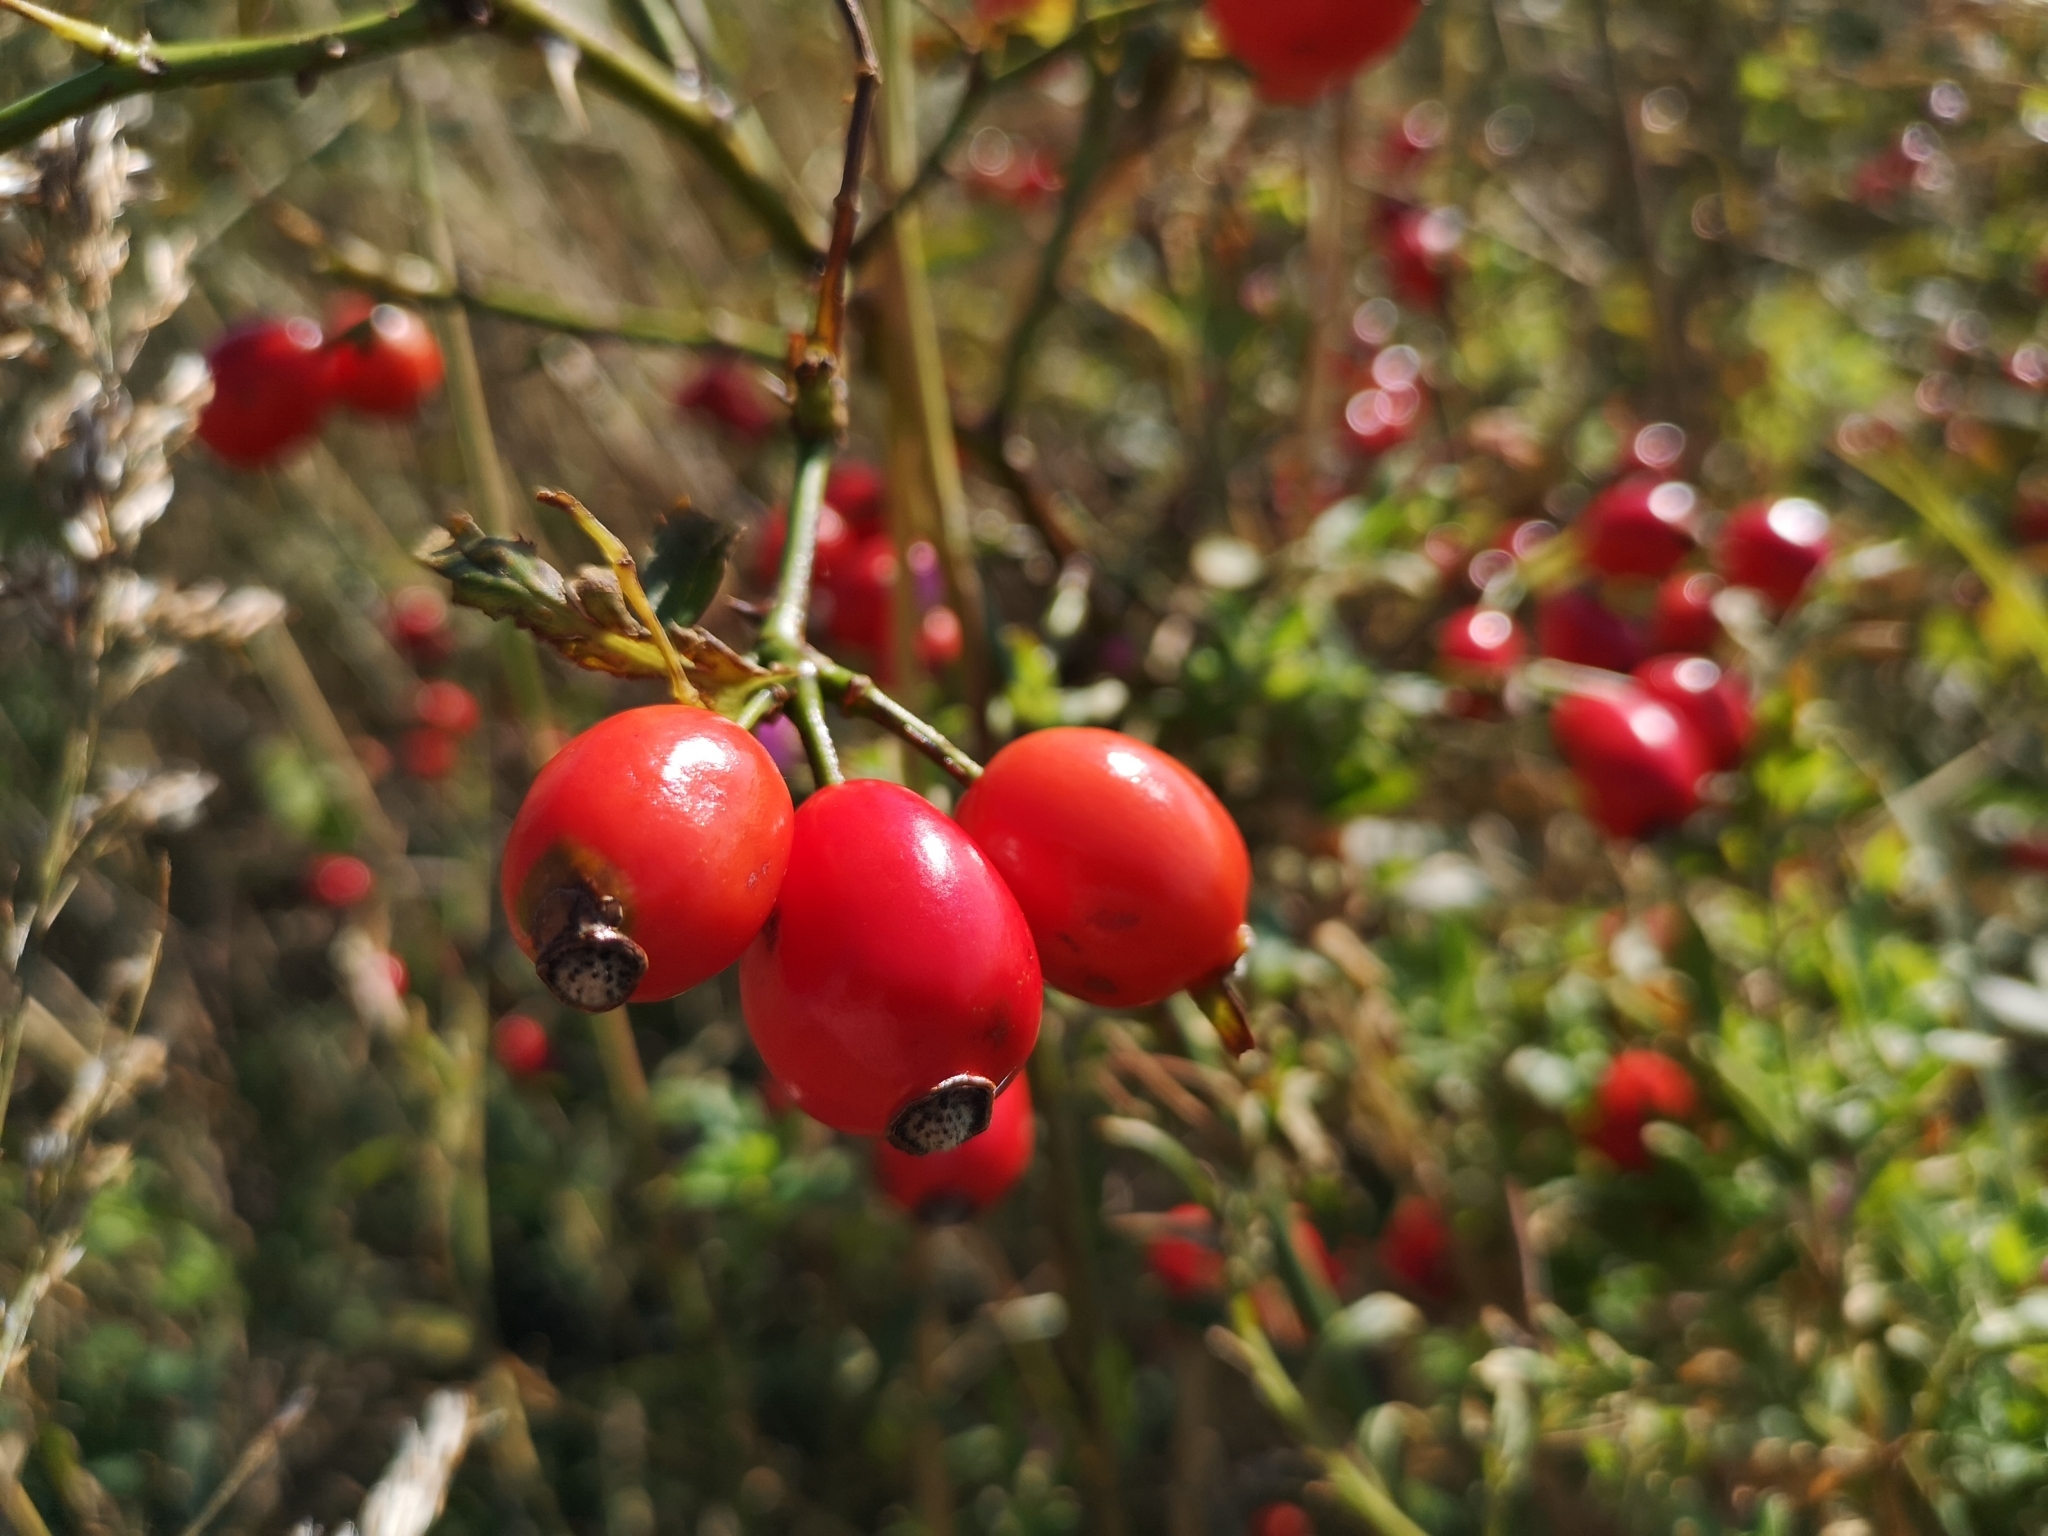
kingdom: Plantae
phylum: Tracheophyta
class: Magnoliopsida
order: Rosales
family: Rosaceae
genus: Rosa
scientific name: Rosa canina
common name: Dog rose
